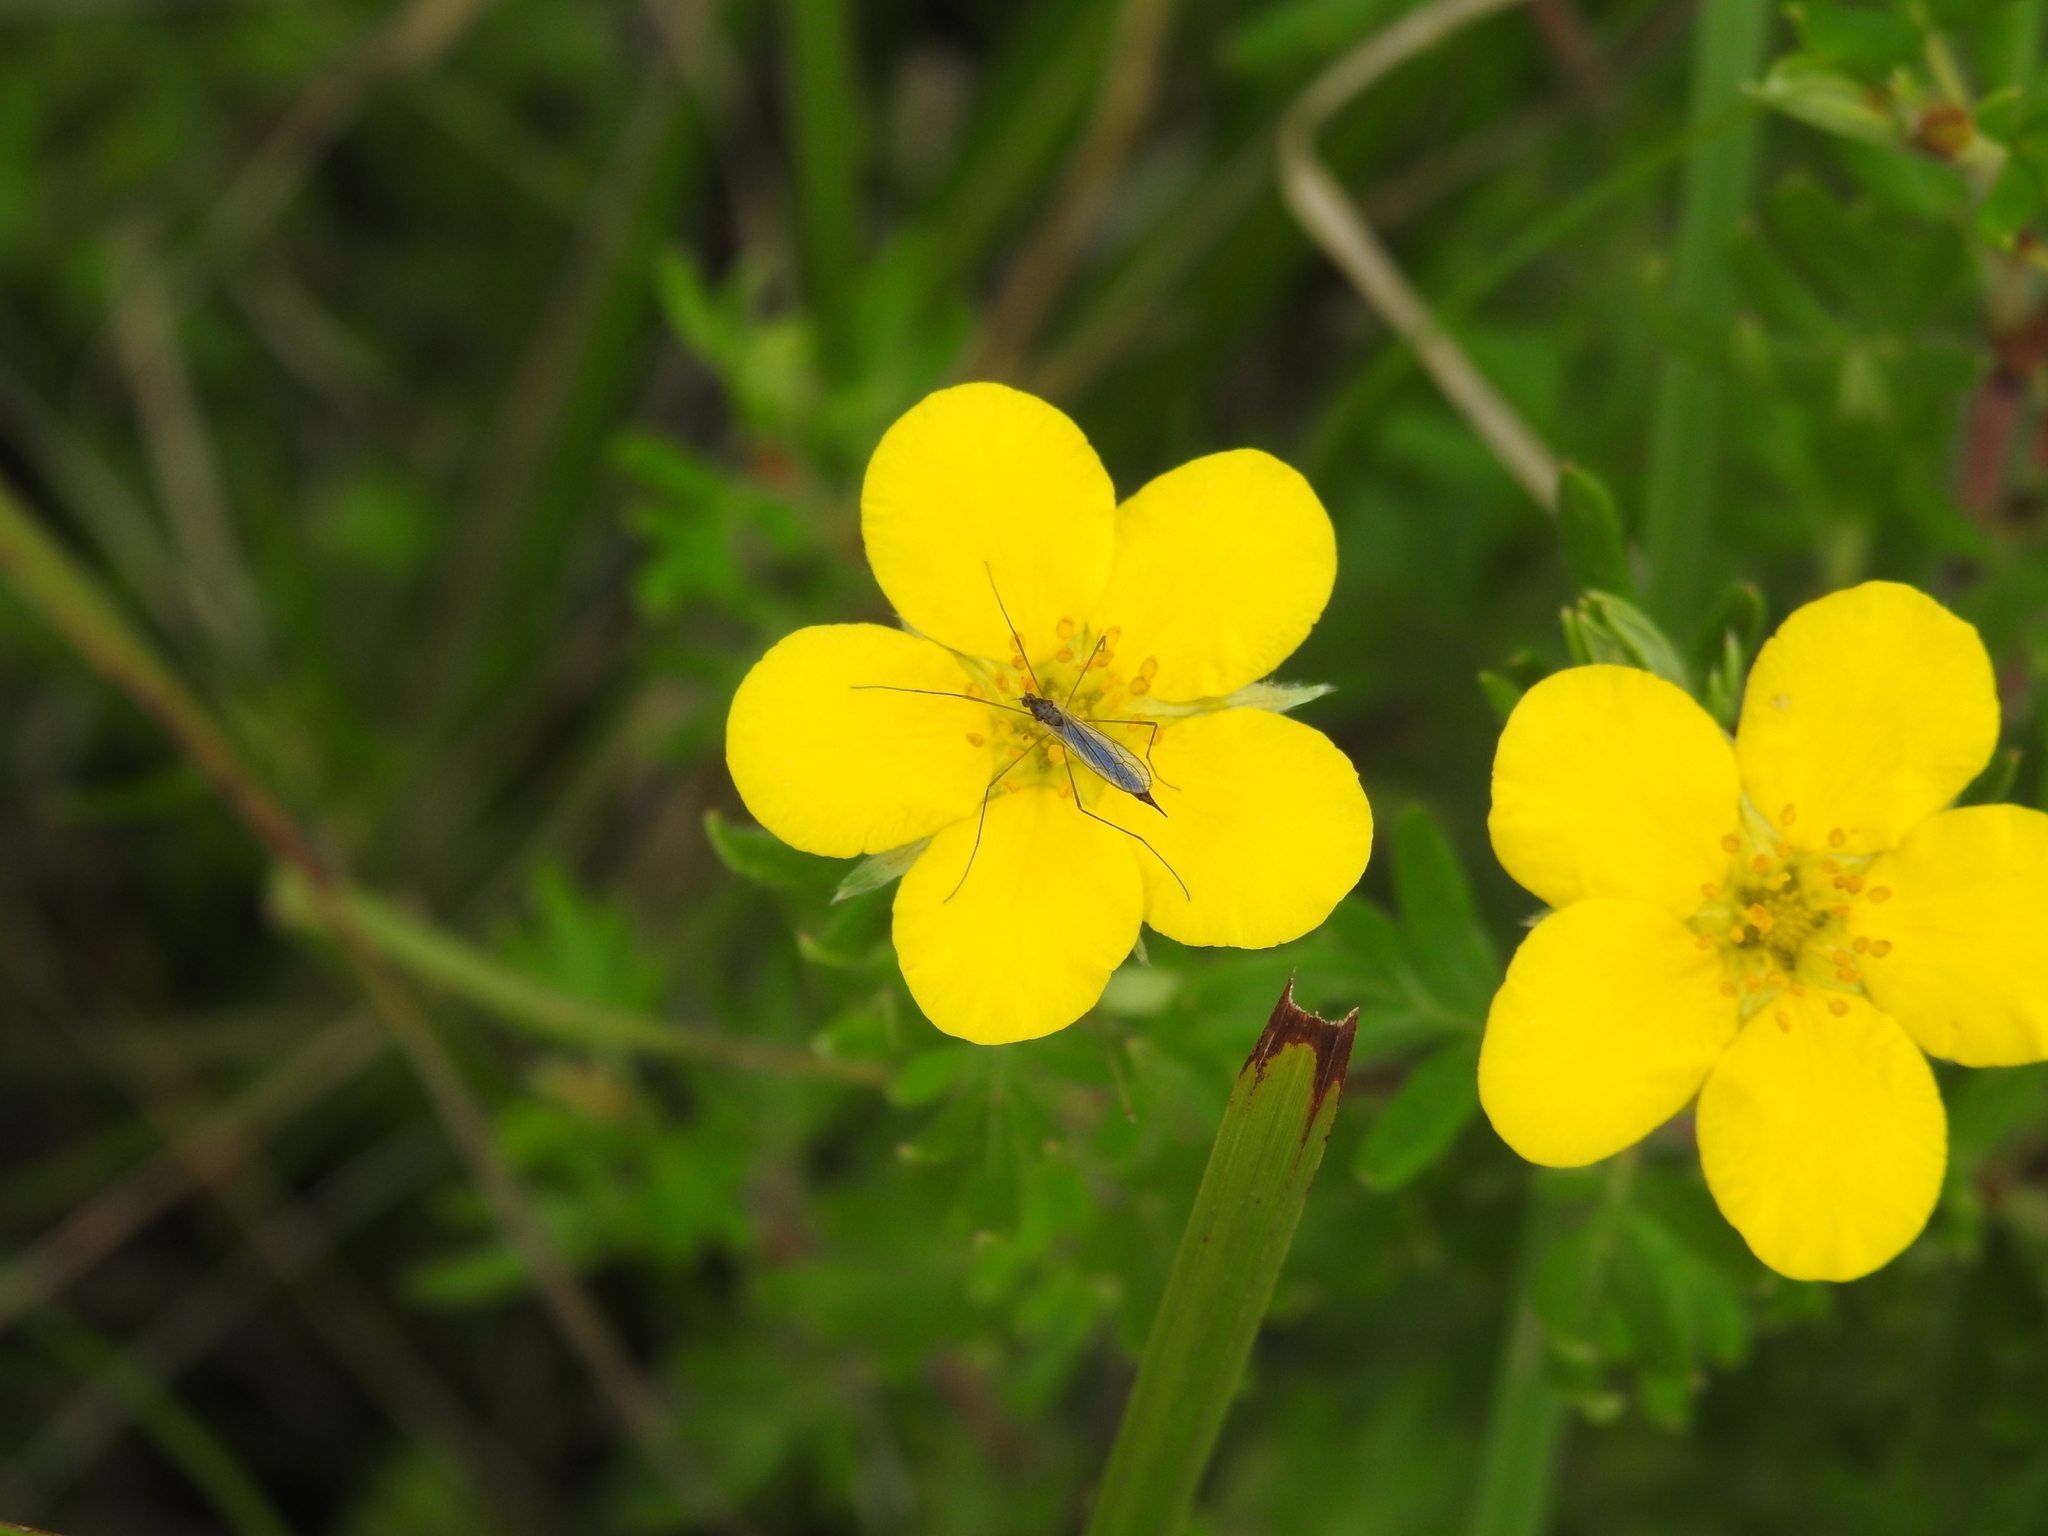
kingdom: Animalia
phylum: Arthropoda
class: Insecta
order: Diptera
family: Limoniidae
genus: Toxorhina
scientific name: Toxorhina
